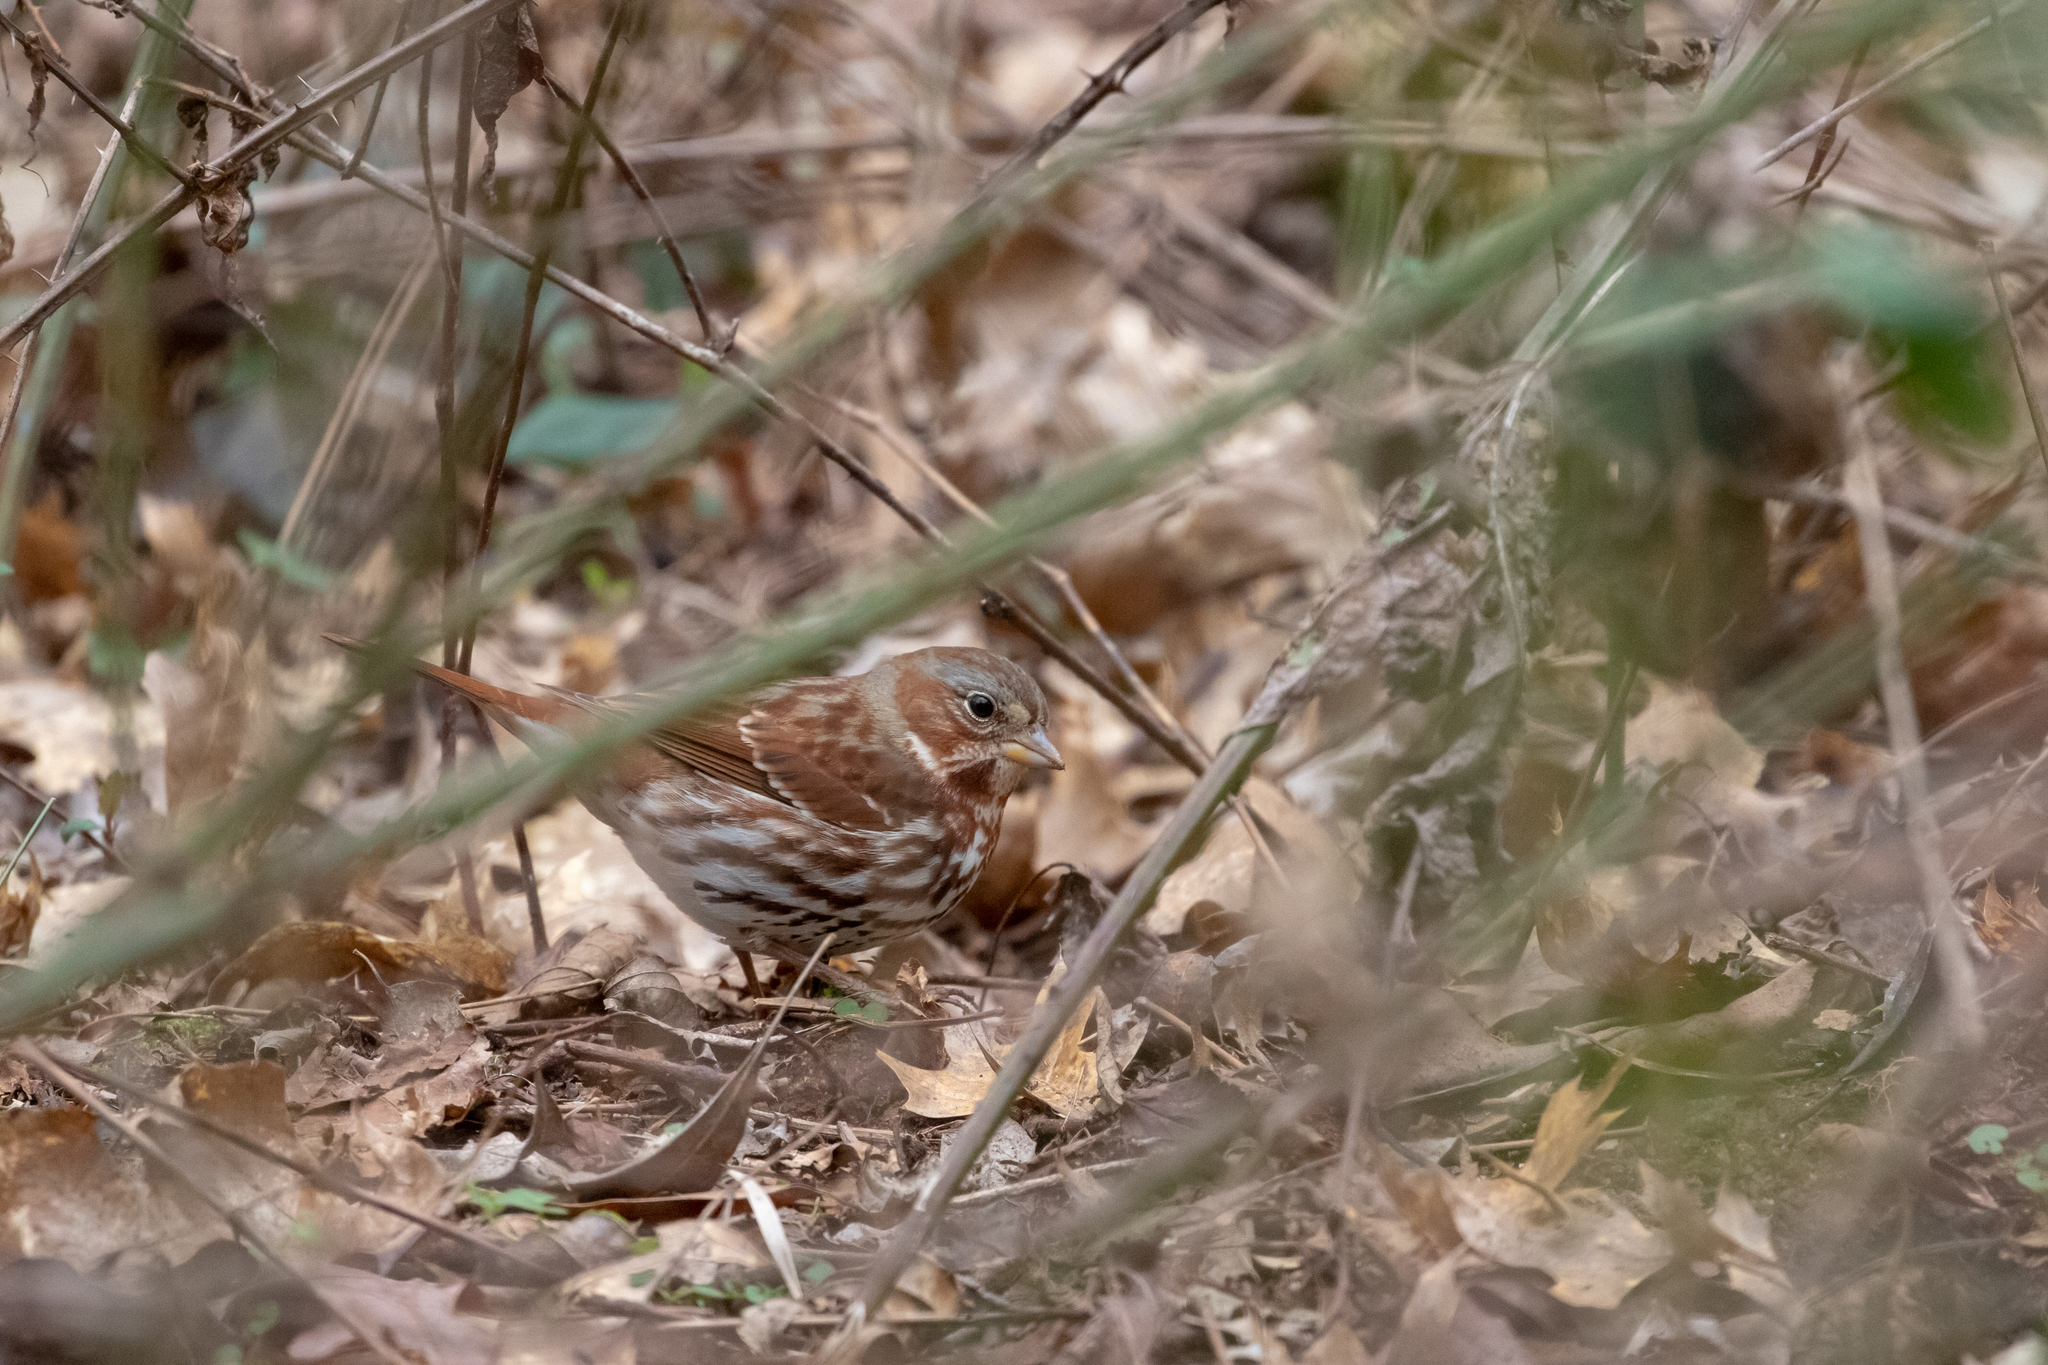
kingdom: Animalia
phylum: Chordata
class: Aves
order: Passeriformes
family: Passerellidae
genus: Passerella
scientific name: Passerella iliaca
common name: Fox sparrow
